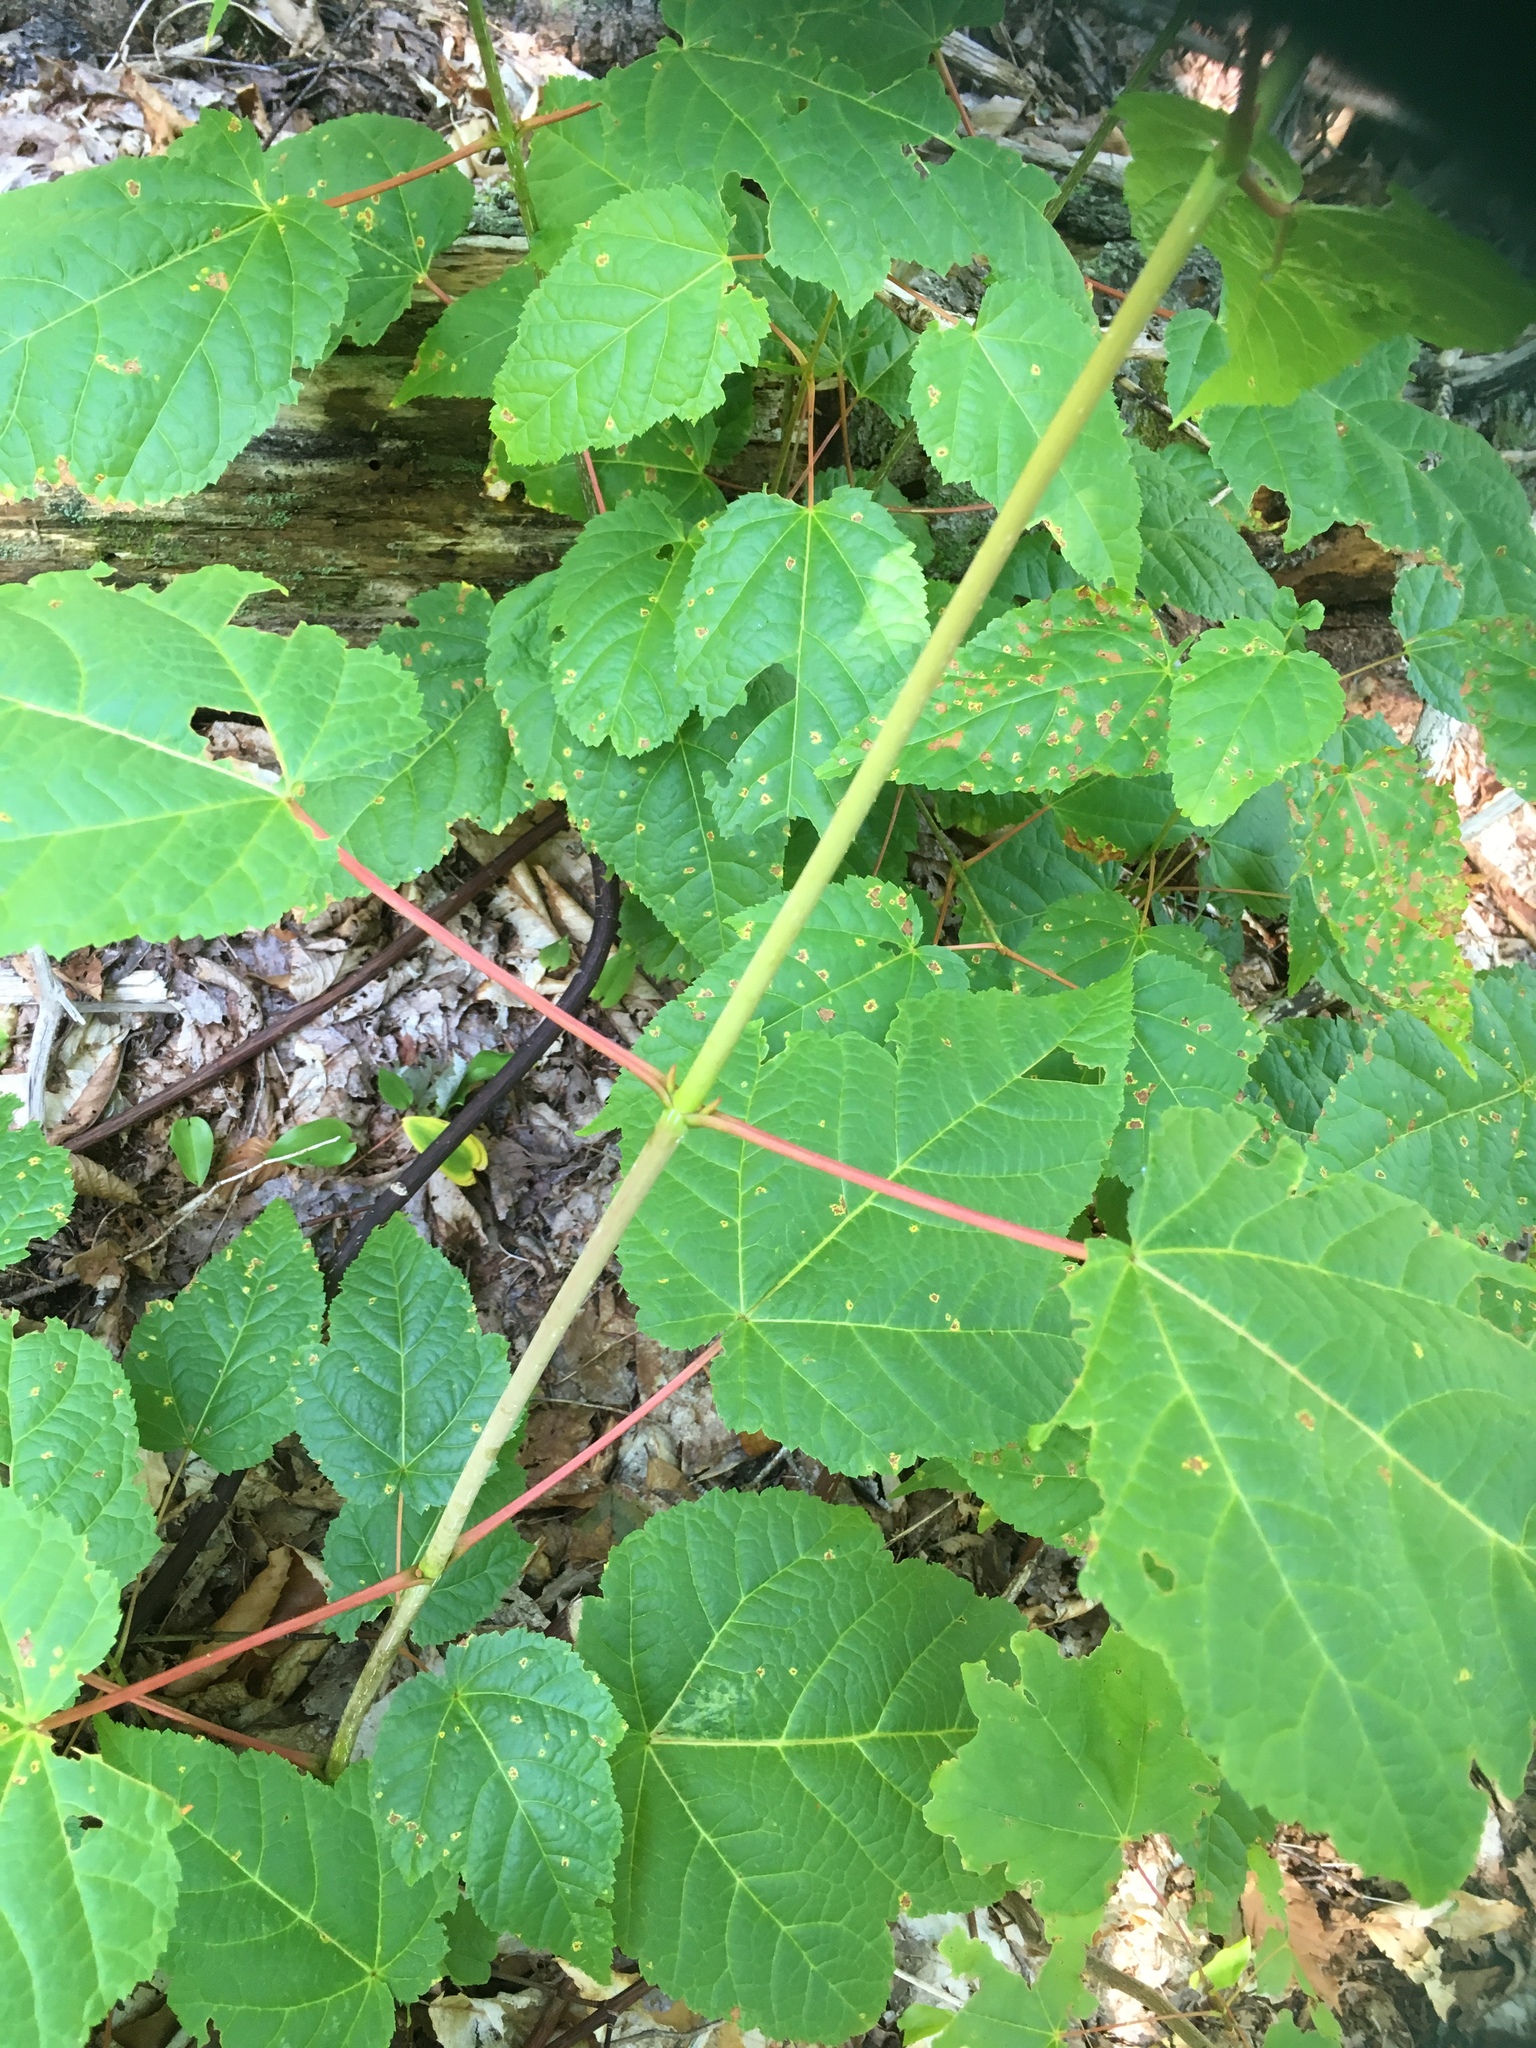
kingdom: Plantae
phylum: Tracheophyta
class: Magnoliopsida
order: Sapindales
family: Sapindaceae
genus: Acer
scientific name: Acer pensylvanicum
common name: Moosewood
